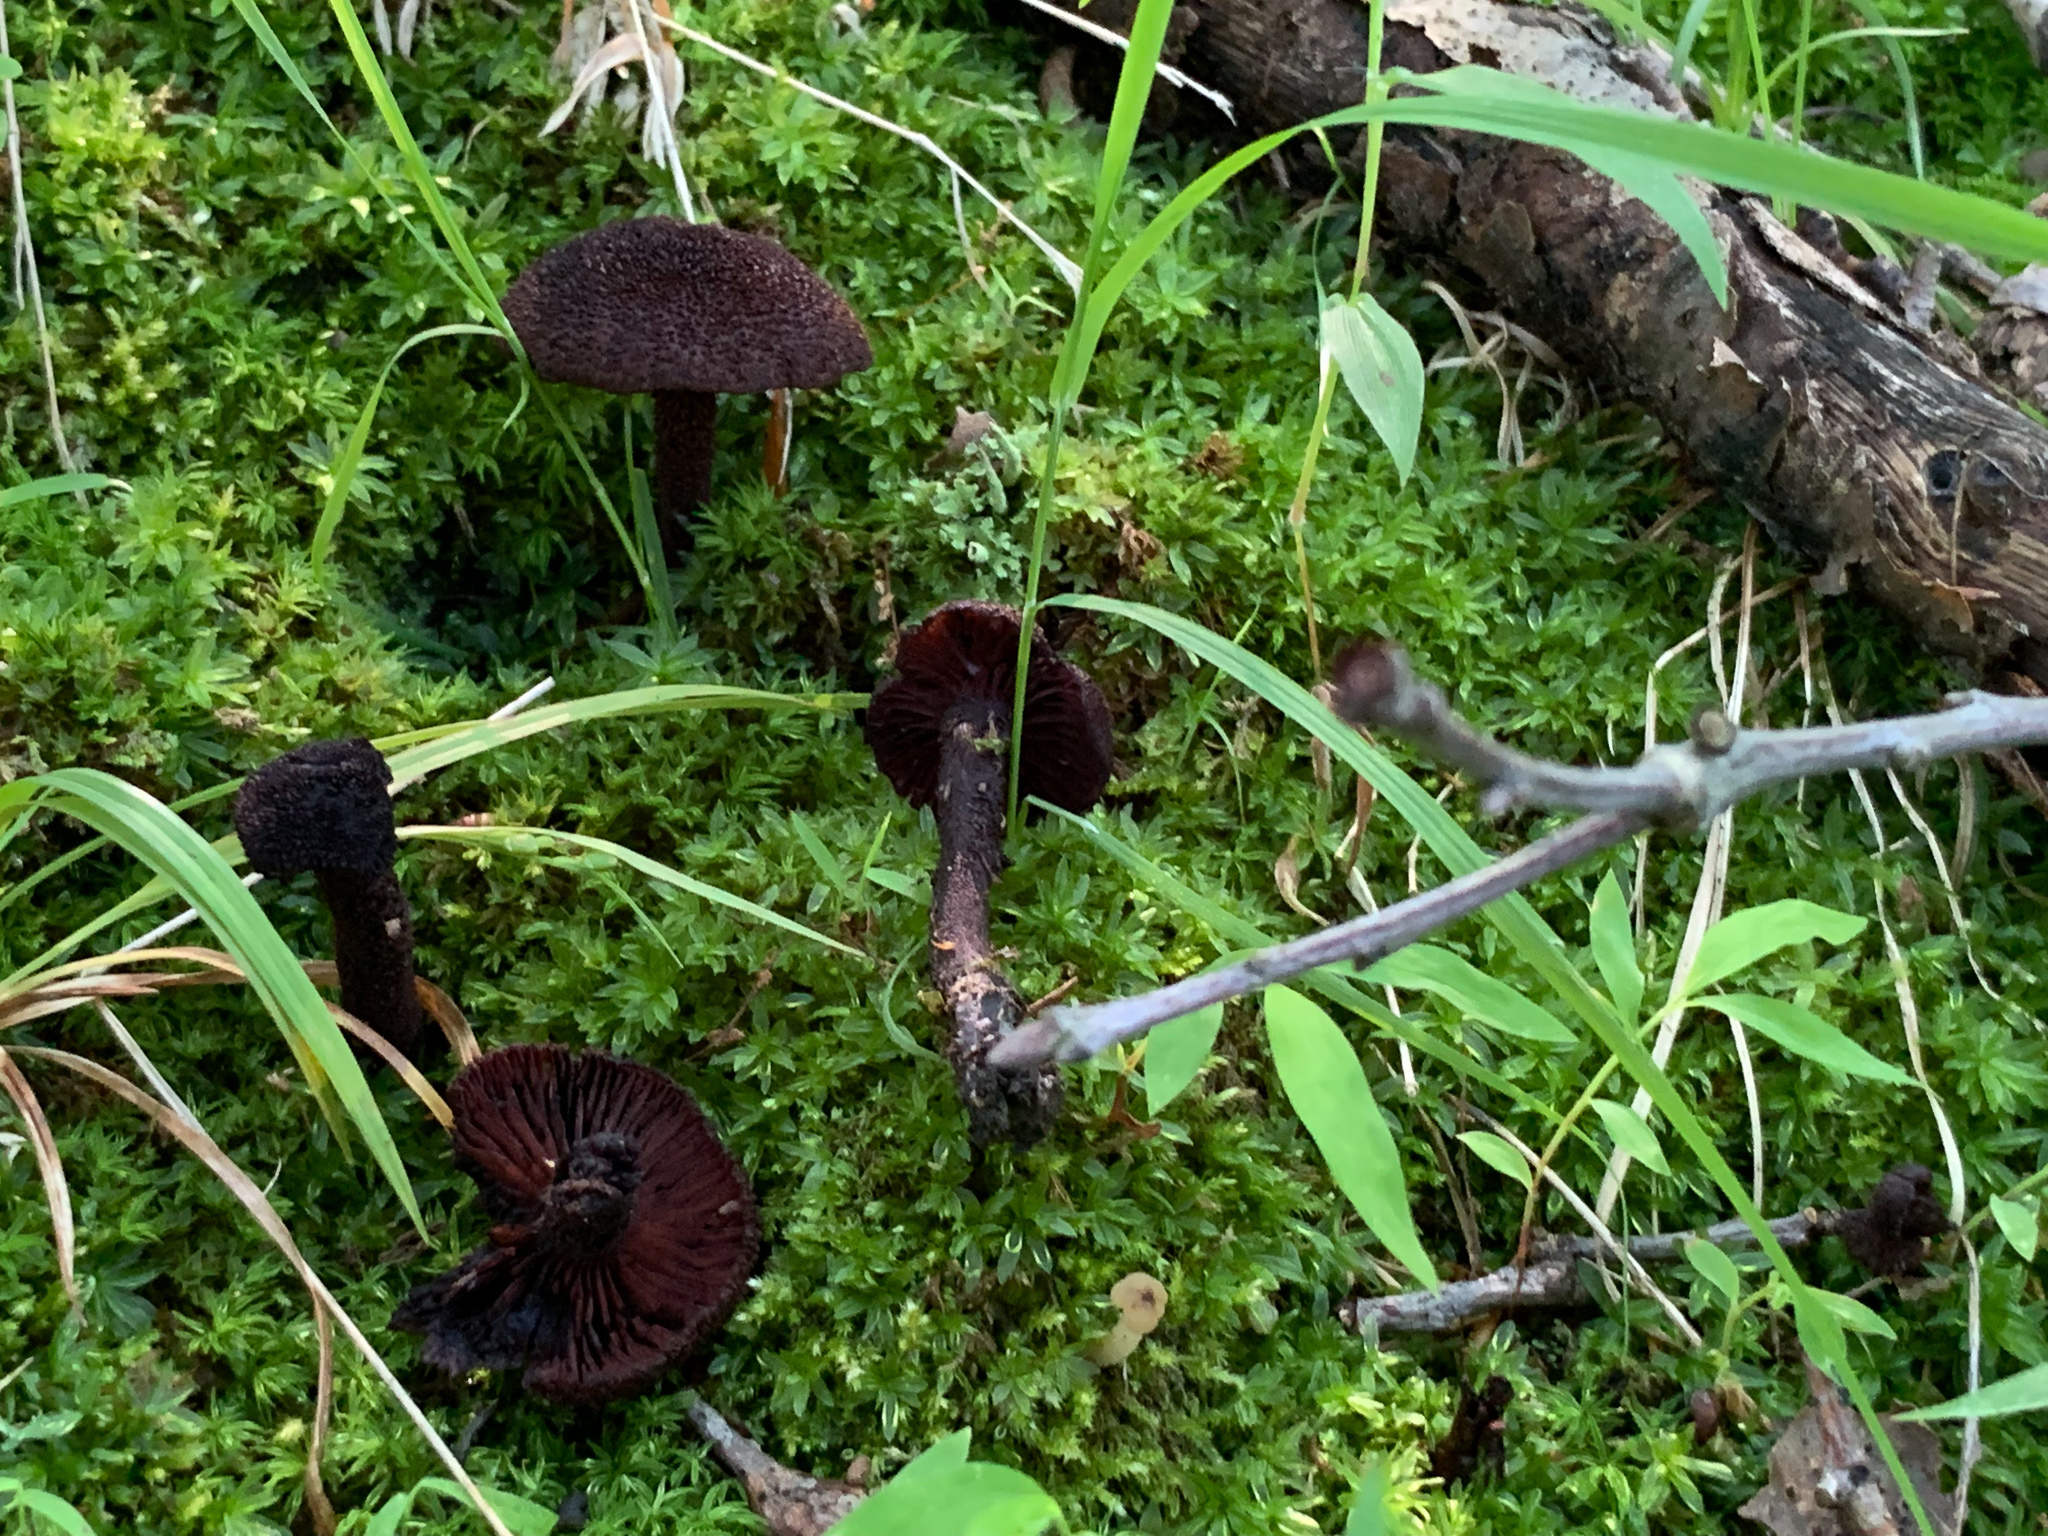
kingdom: Fungi
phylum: Basidiomycota
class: Agaricomycetes
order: Agaricales
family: Inocybaceae
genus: Inocybe
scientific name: Inocybe tahquamenonensis
